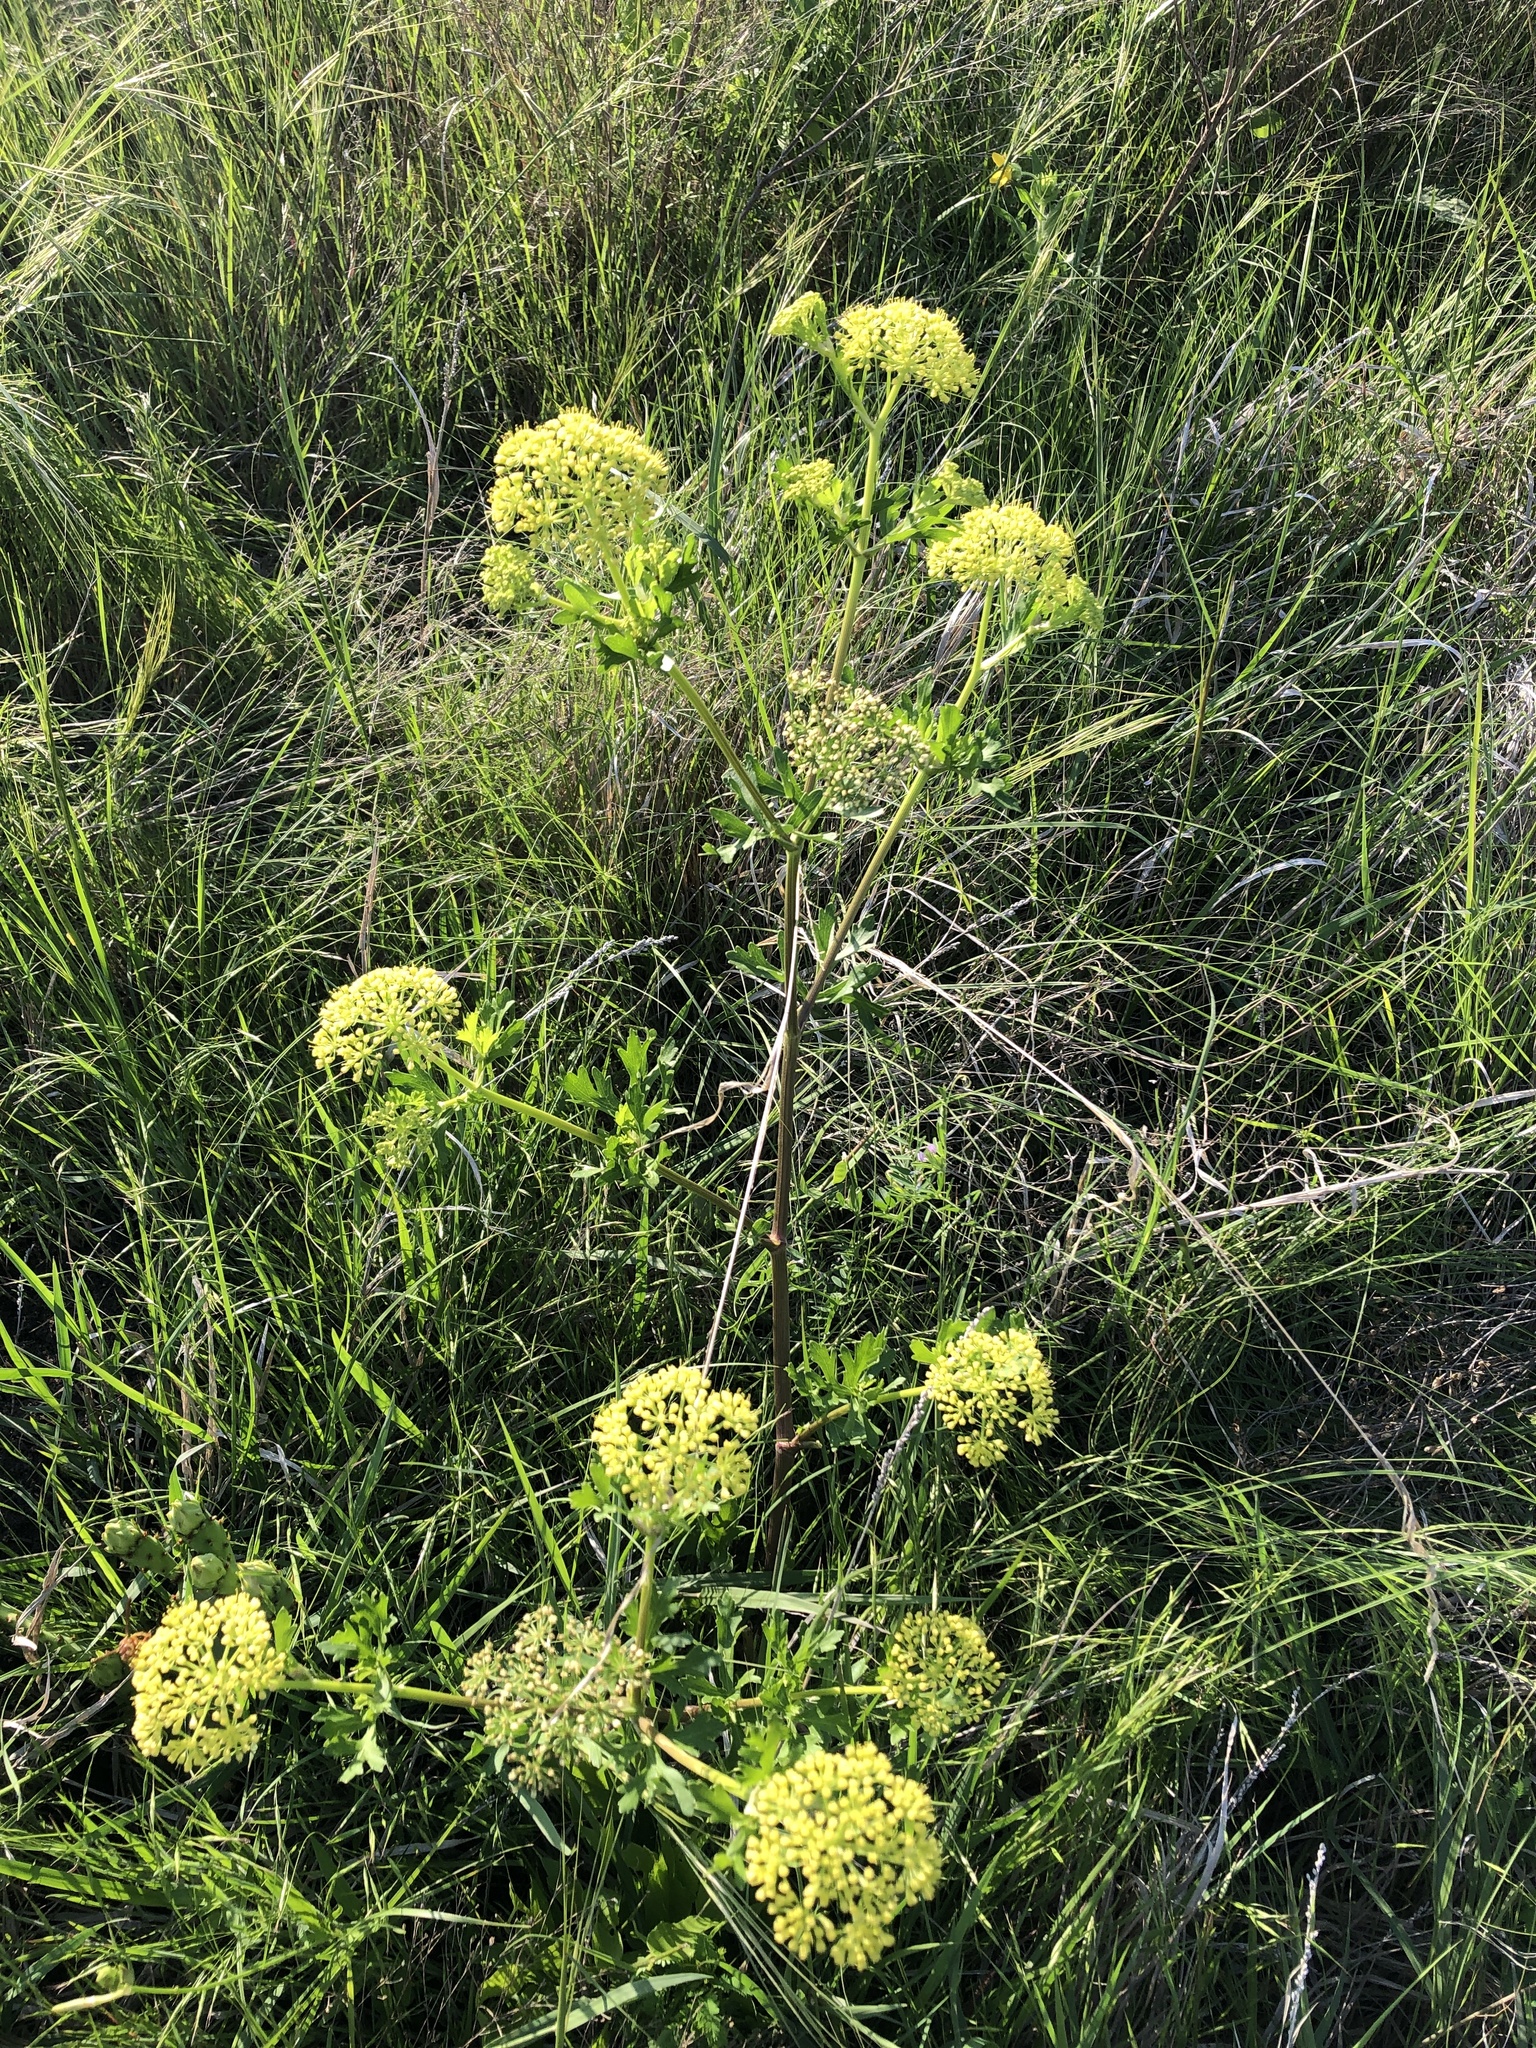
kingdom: Plantae
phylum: Tracheophyta
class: Magnoliopsida
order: Apiales
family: Apiaceae
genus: Polytaenia
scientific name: Polytaenia texana
